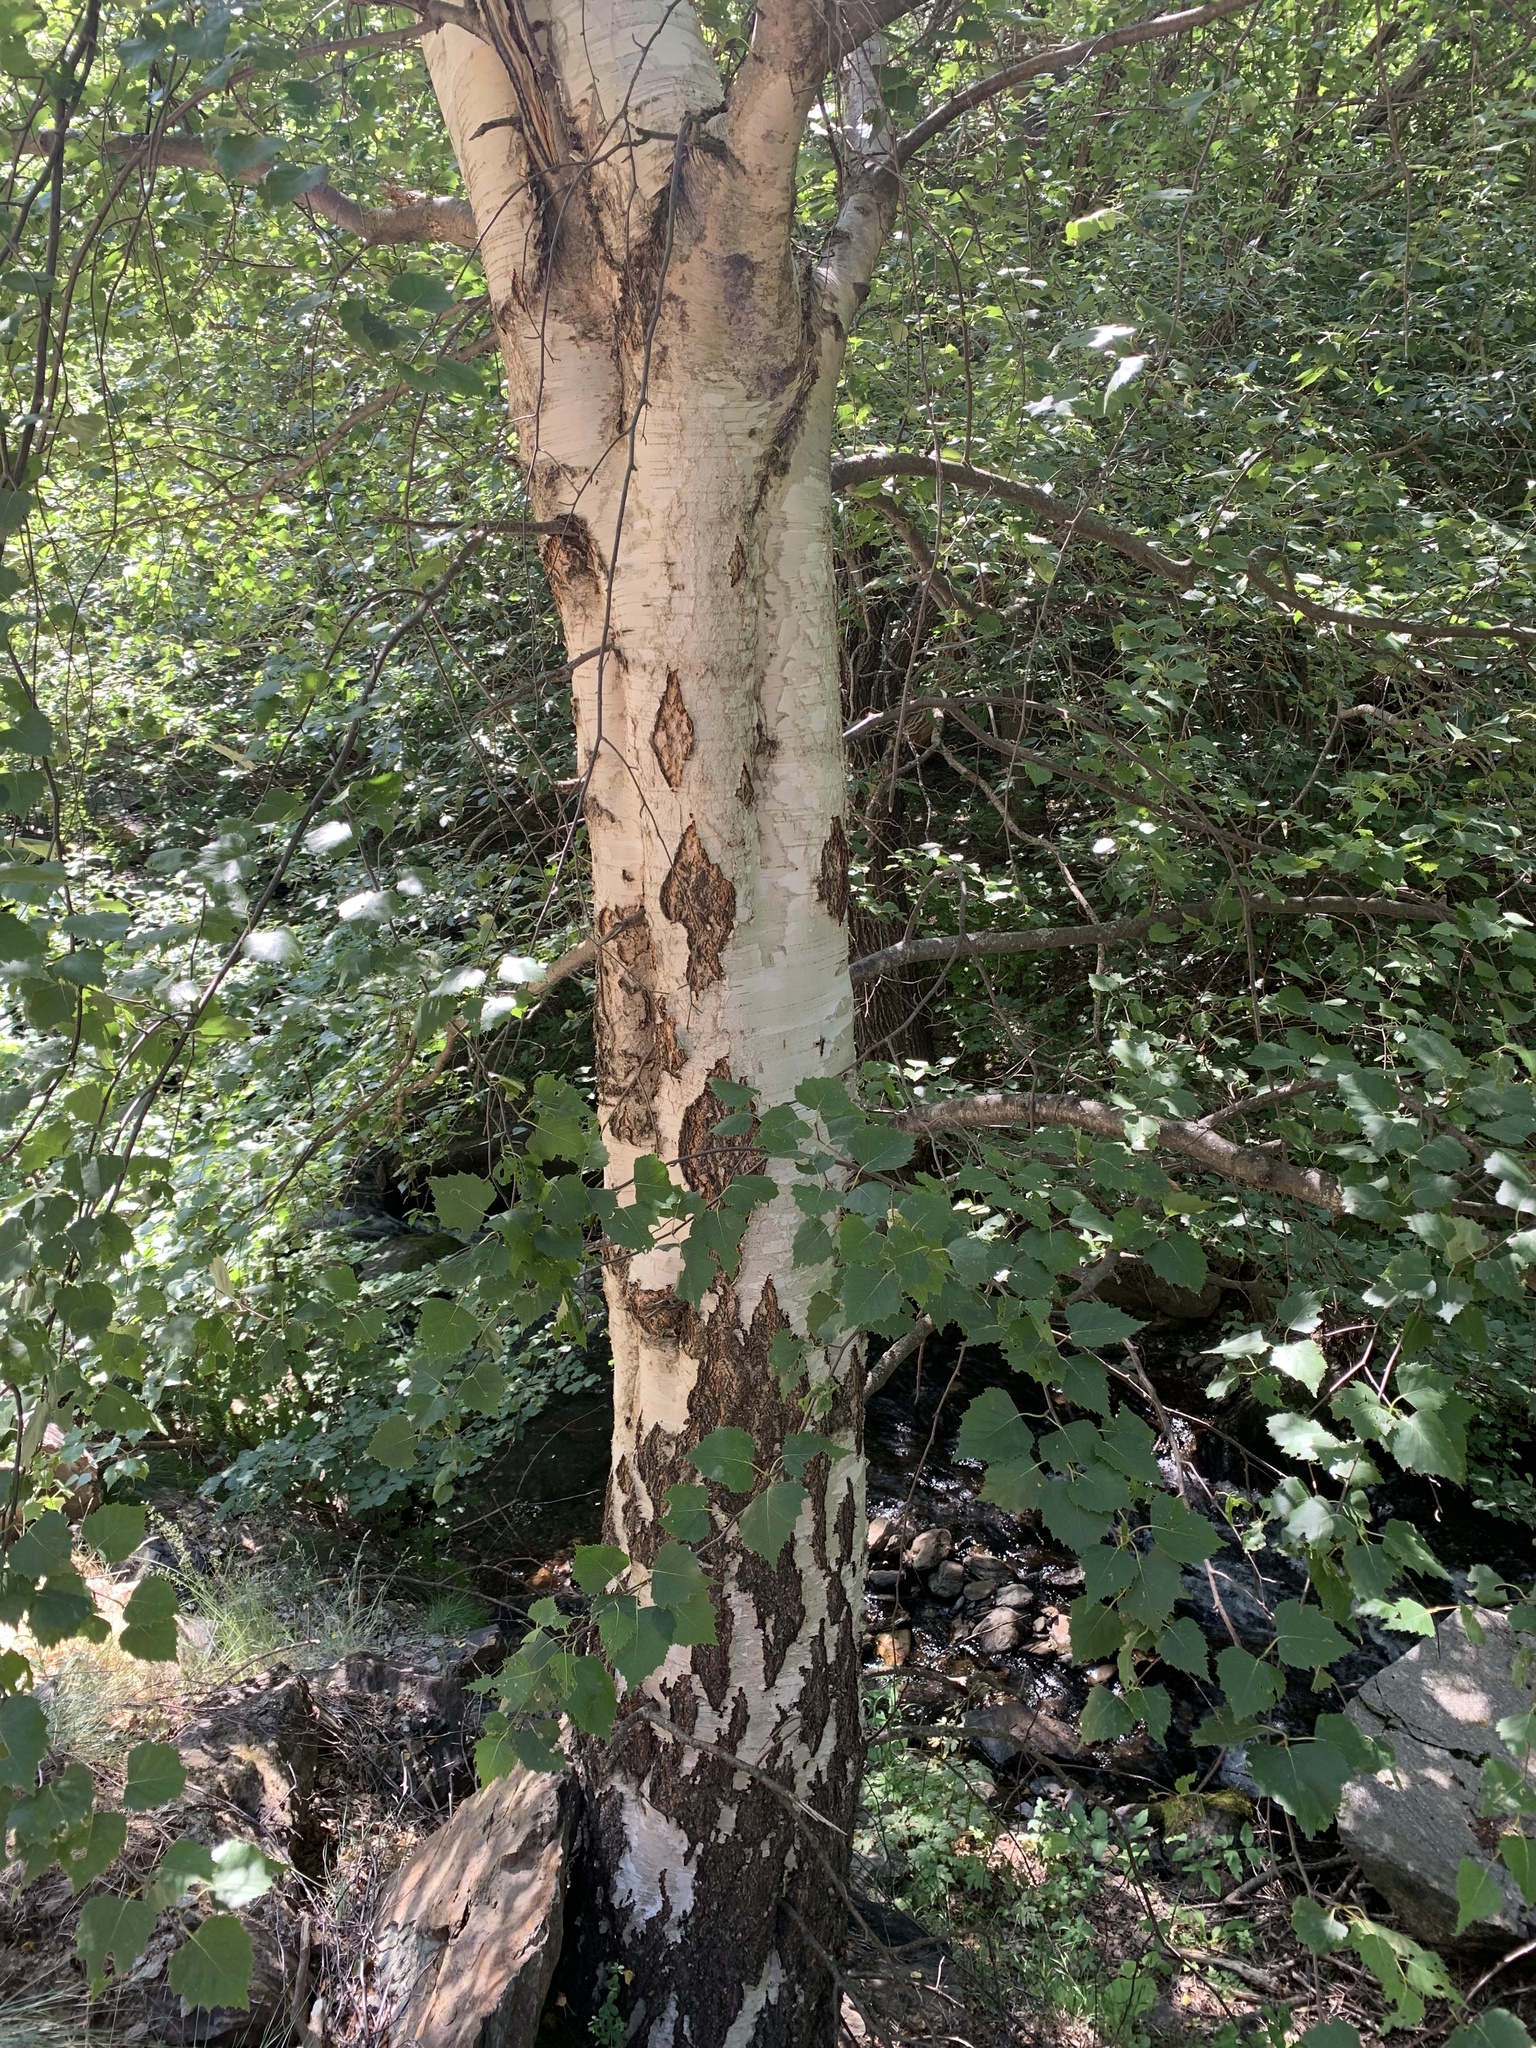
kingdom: Plantae
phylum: Tracheophyta
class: Magnoliopsida
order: Fagales
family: Betulaceae
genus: Betula
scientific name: Betula pendula
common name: Silver birch
